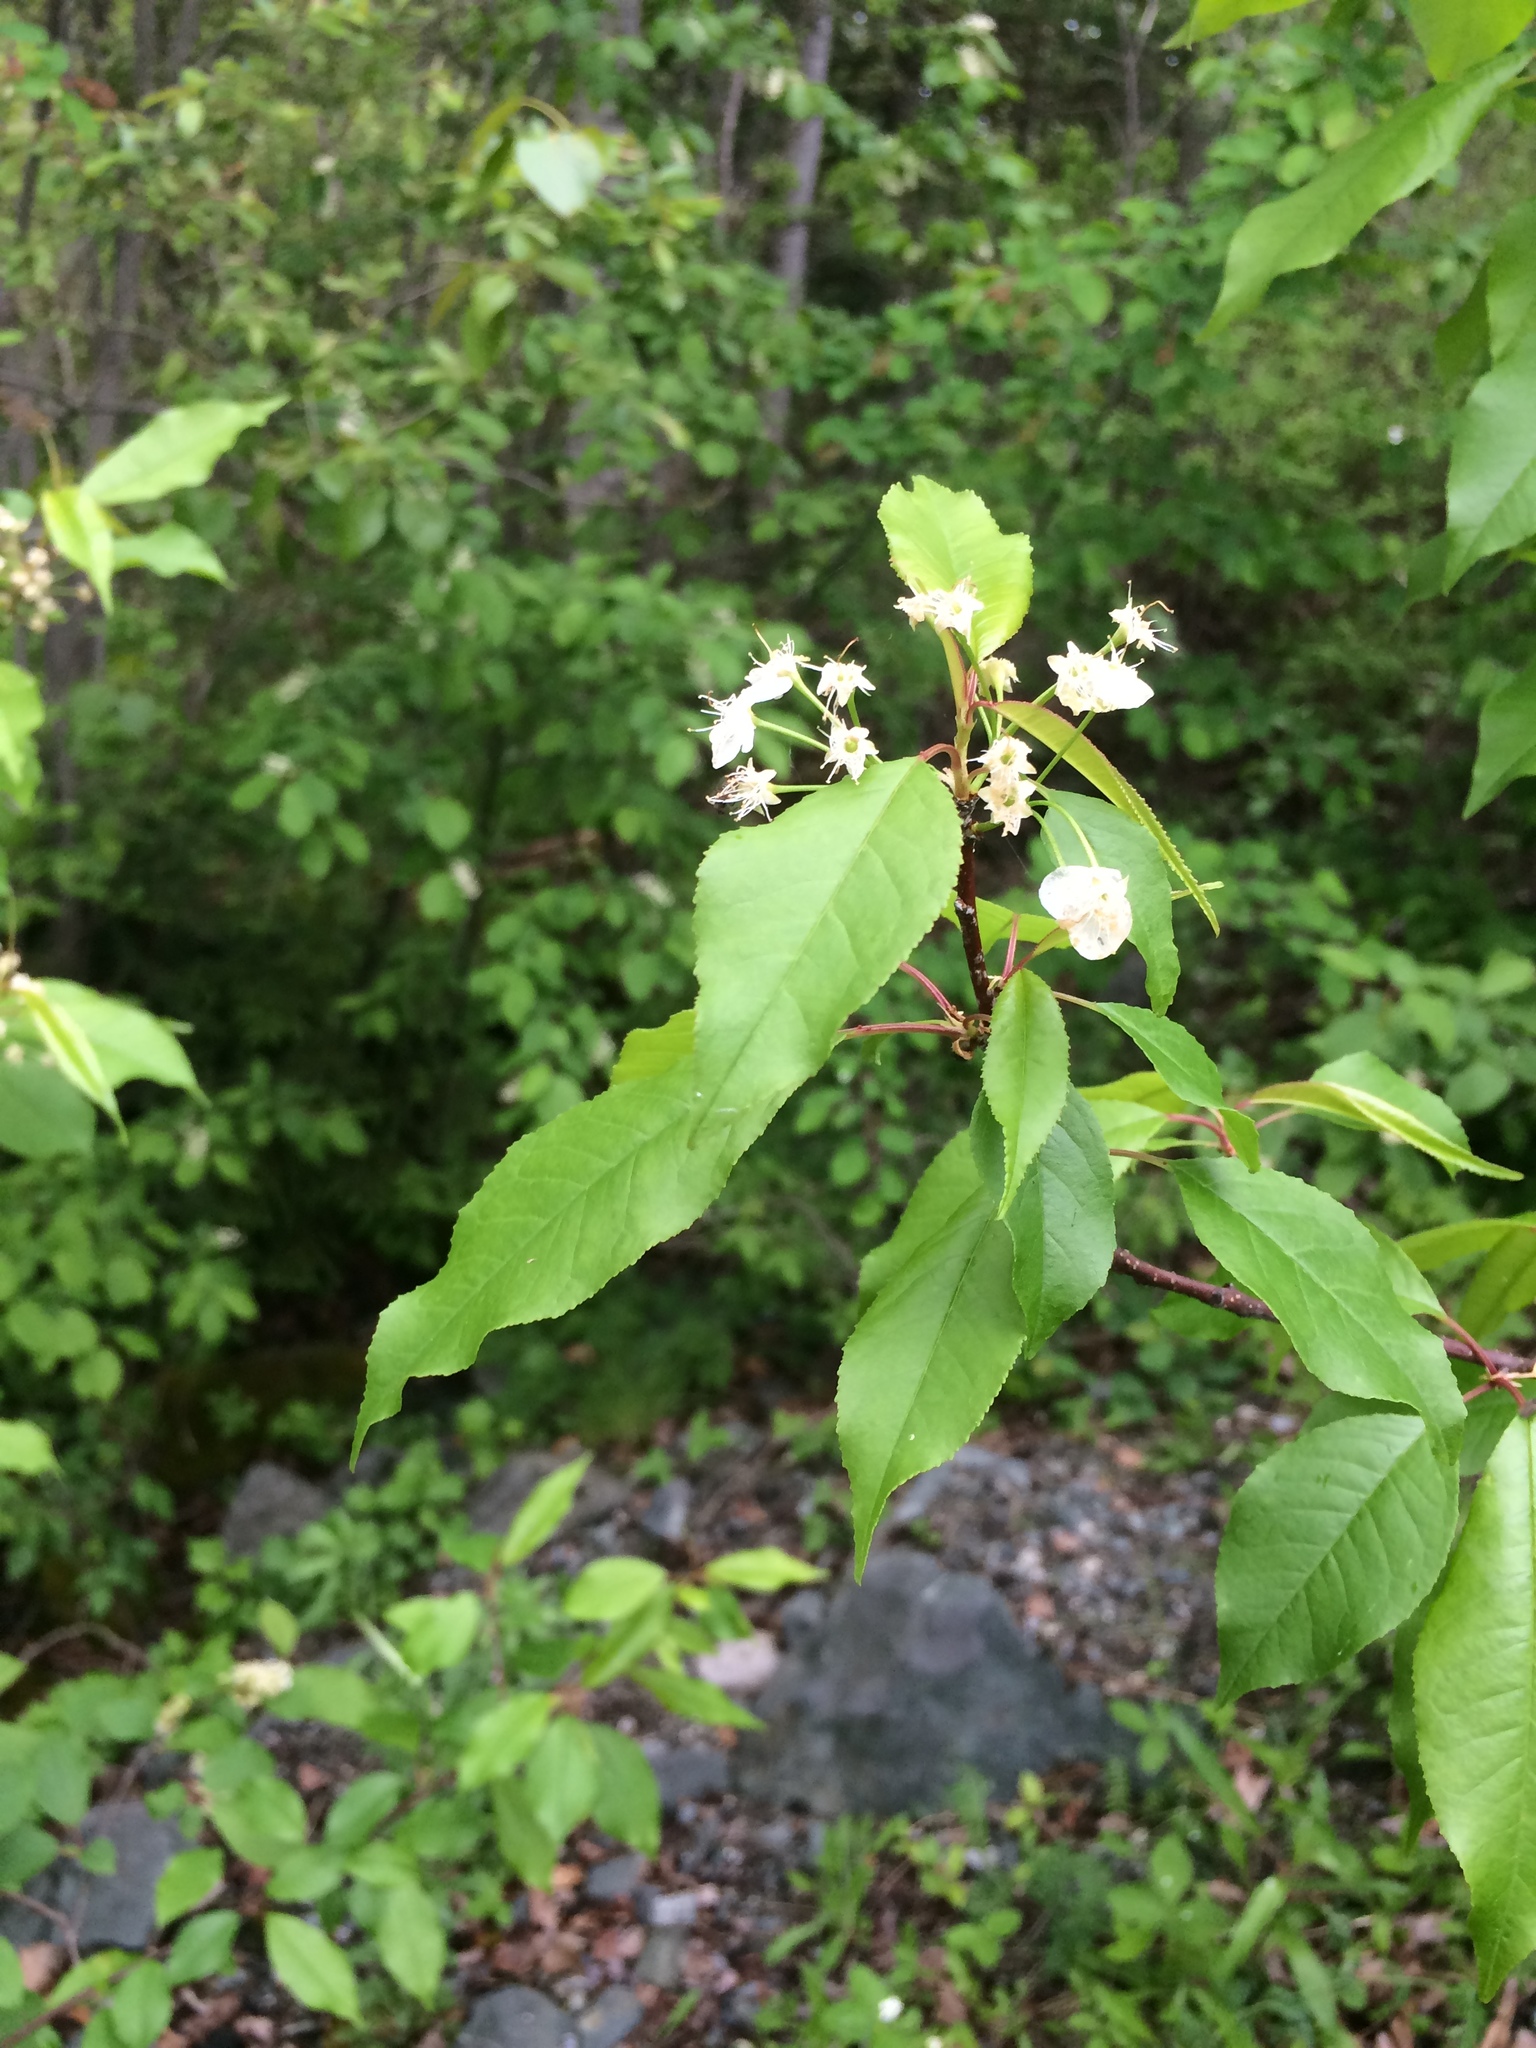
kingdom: Plantae
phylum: Tracheophyta
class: Magnoliopsida
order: Rosales
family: Rosaceae
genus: Prunus
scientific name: Prunus pensylvanica
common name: Pin cherry
